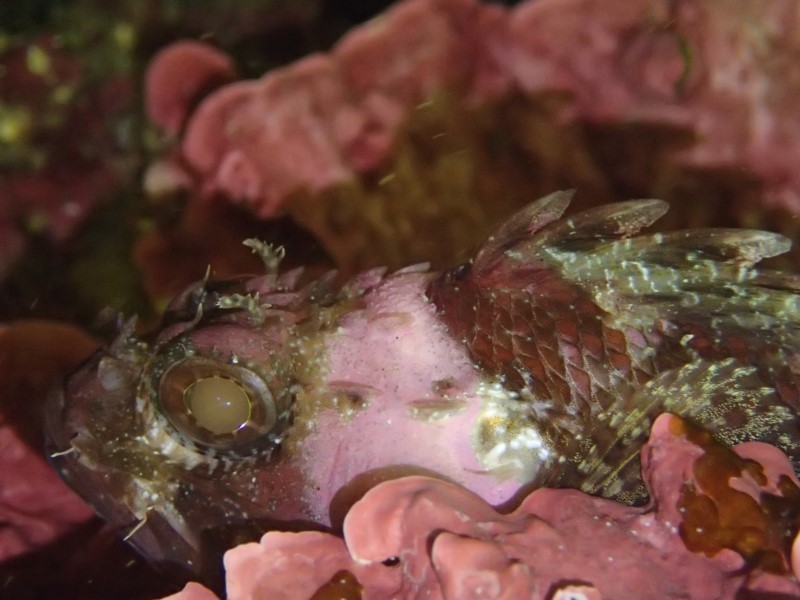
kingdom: Animalia
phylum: Chordata
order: Scorpaeniformes
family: Scorpaenidae
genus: Scorpaena
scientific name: Scorpaena papillosa
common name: Chained scorpionfish
